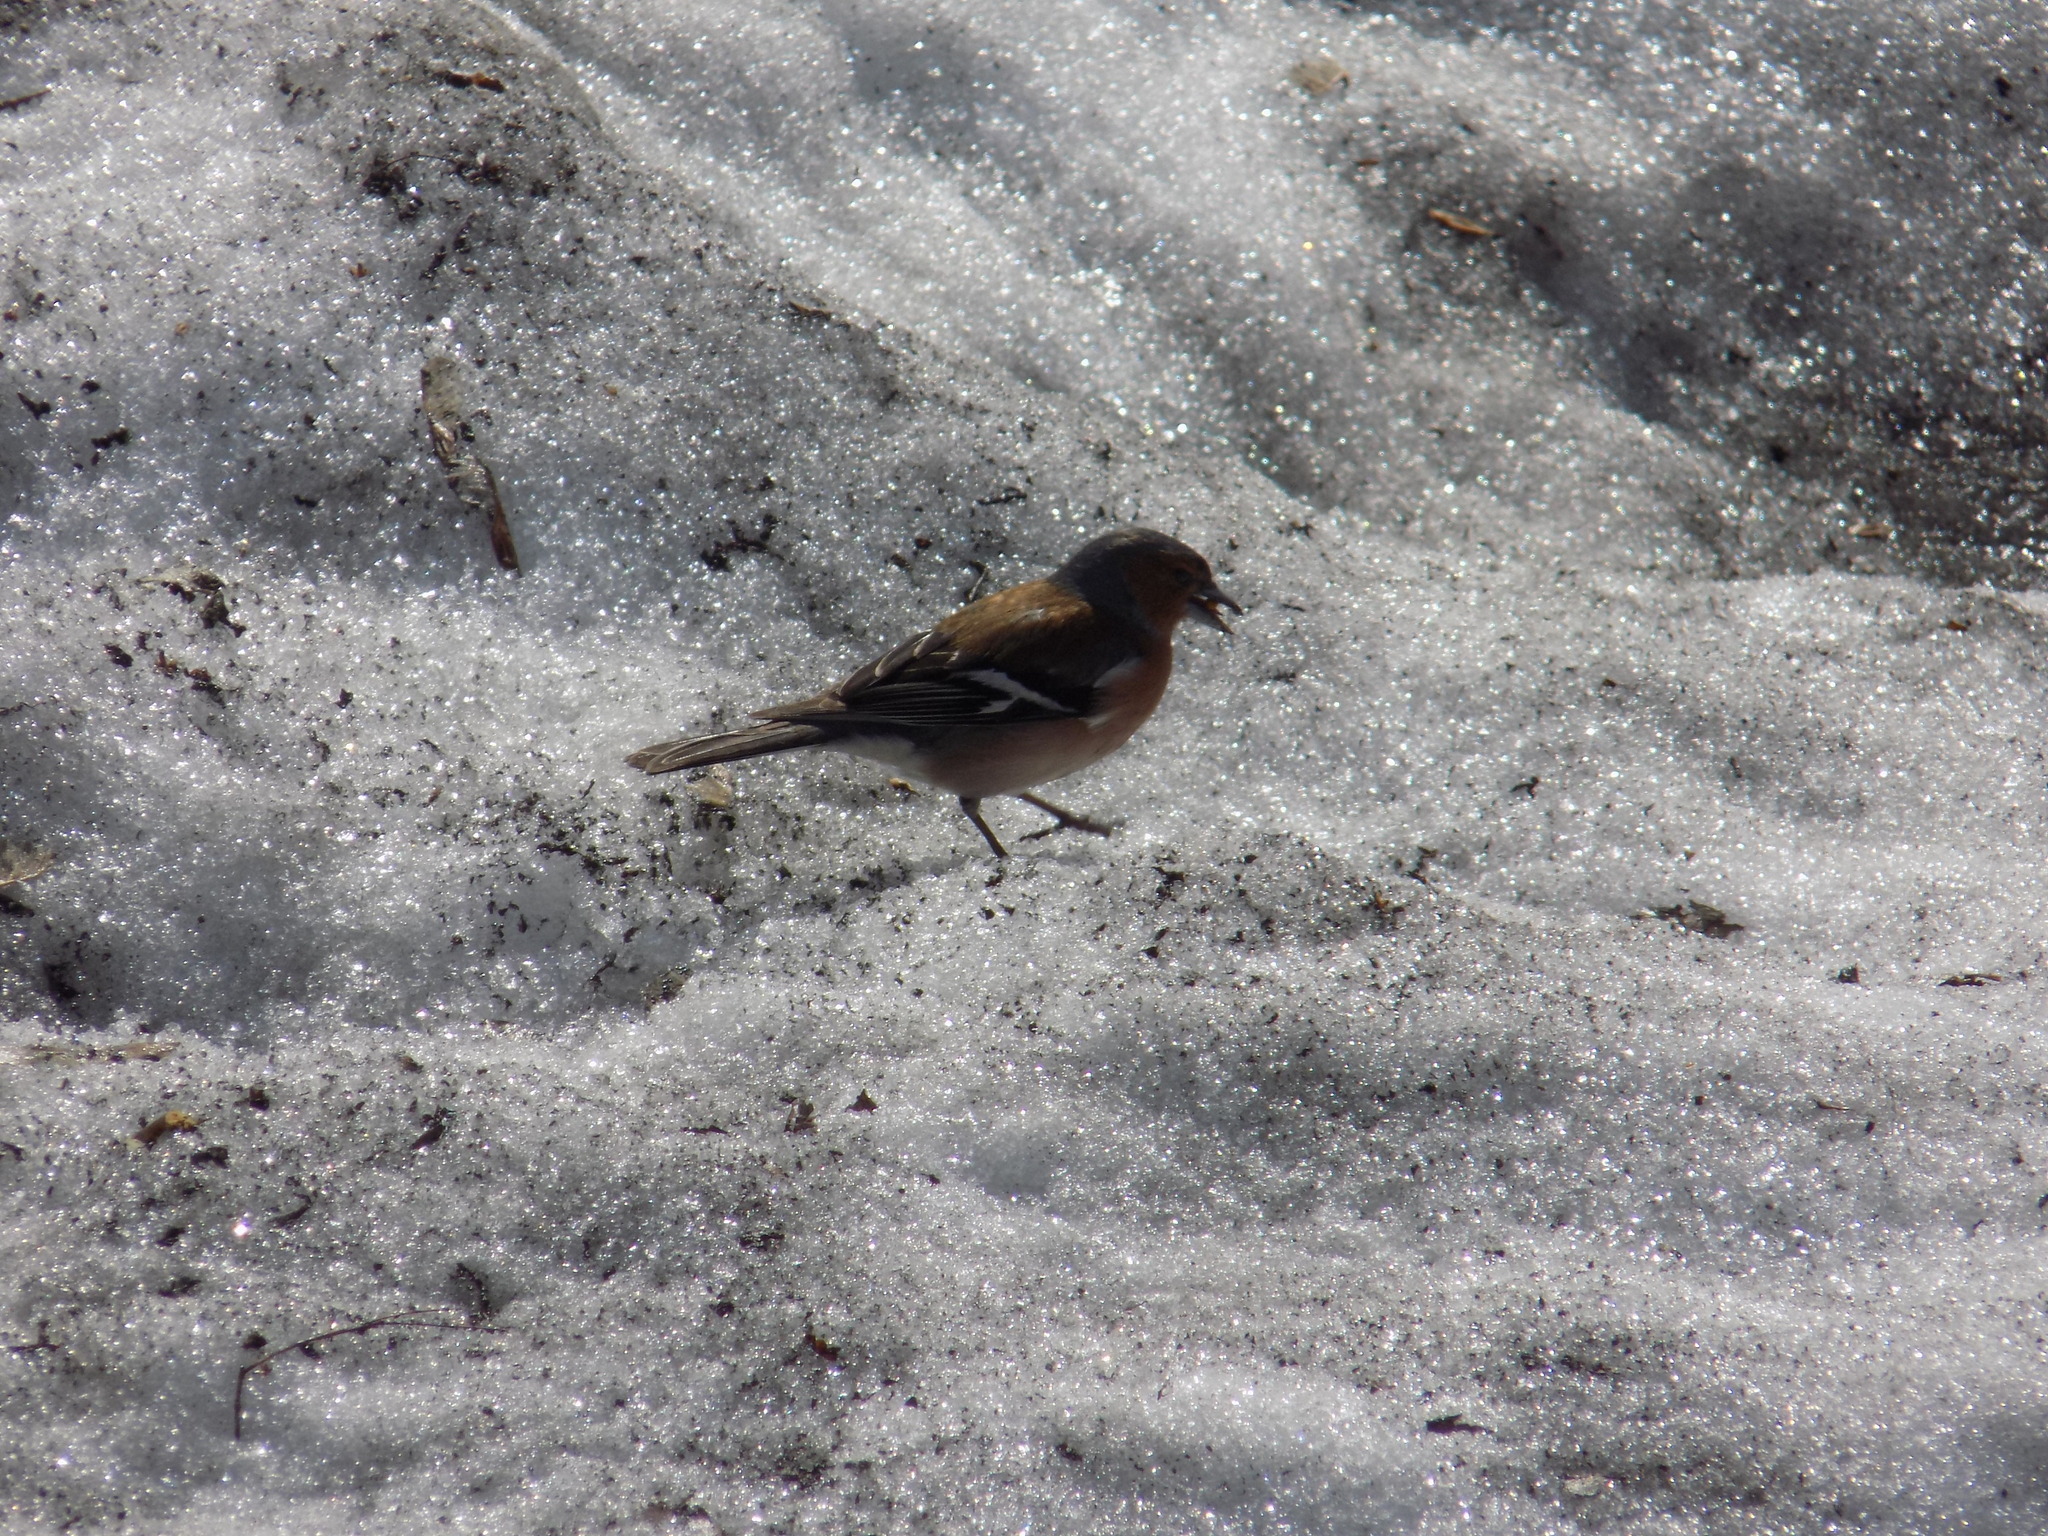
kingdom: Animalia
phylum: Chordata
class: Aves
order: Passeriformes
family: Fringillidae
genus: Fringilla
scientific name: Fringilla coelebs
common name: Common chaffinch
